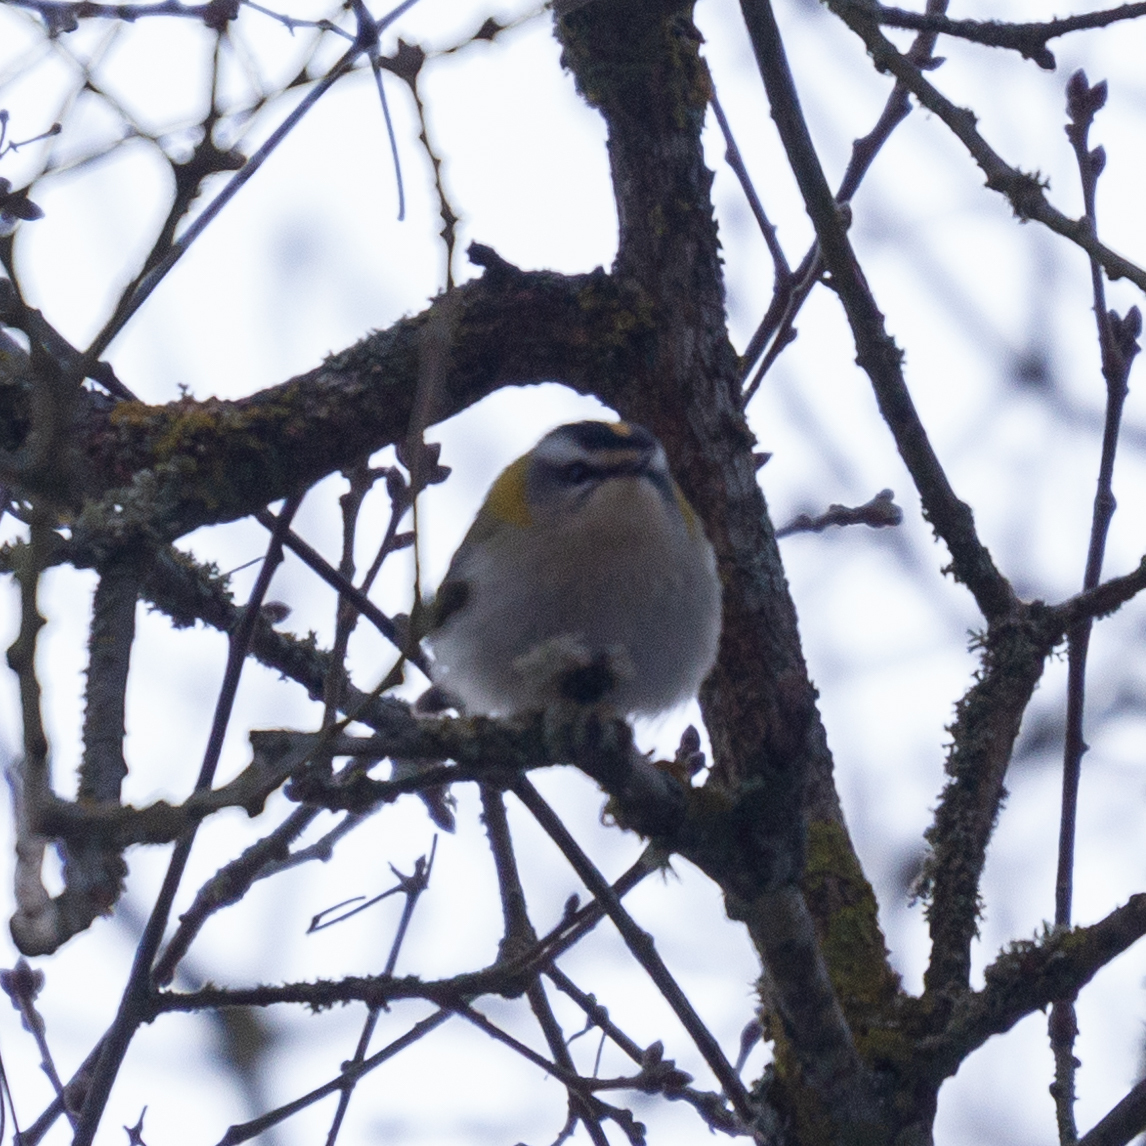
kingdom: Animalia
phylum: Chordata
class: Aves
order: Passeriformes
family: Regulidae
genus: Regulus
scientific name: Regulus ignicapilla
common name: Firecrest
